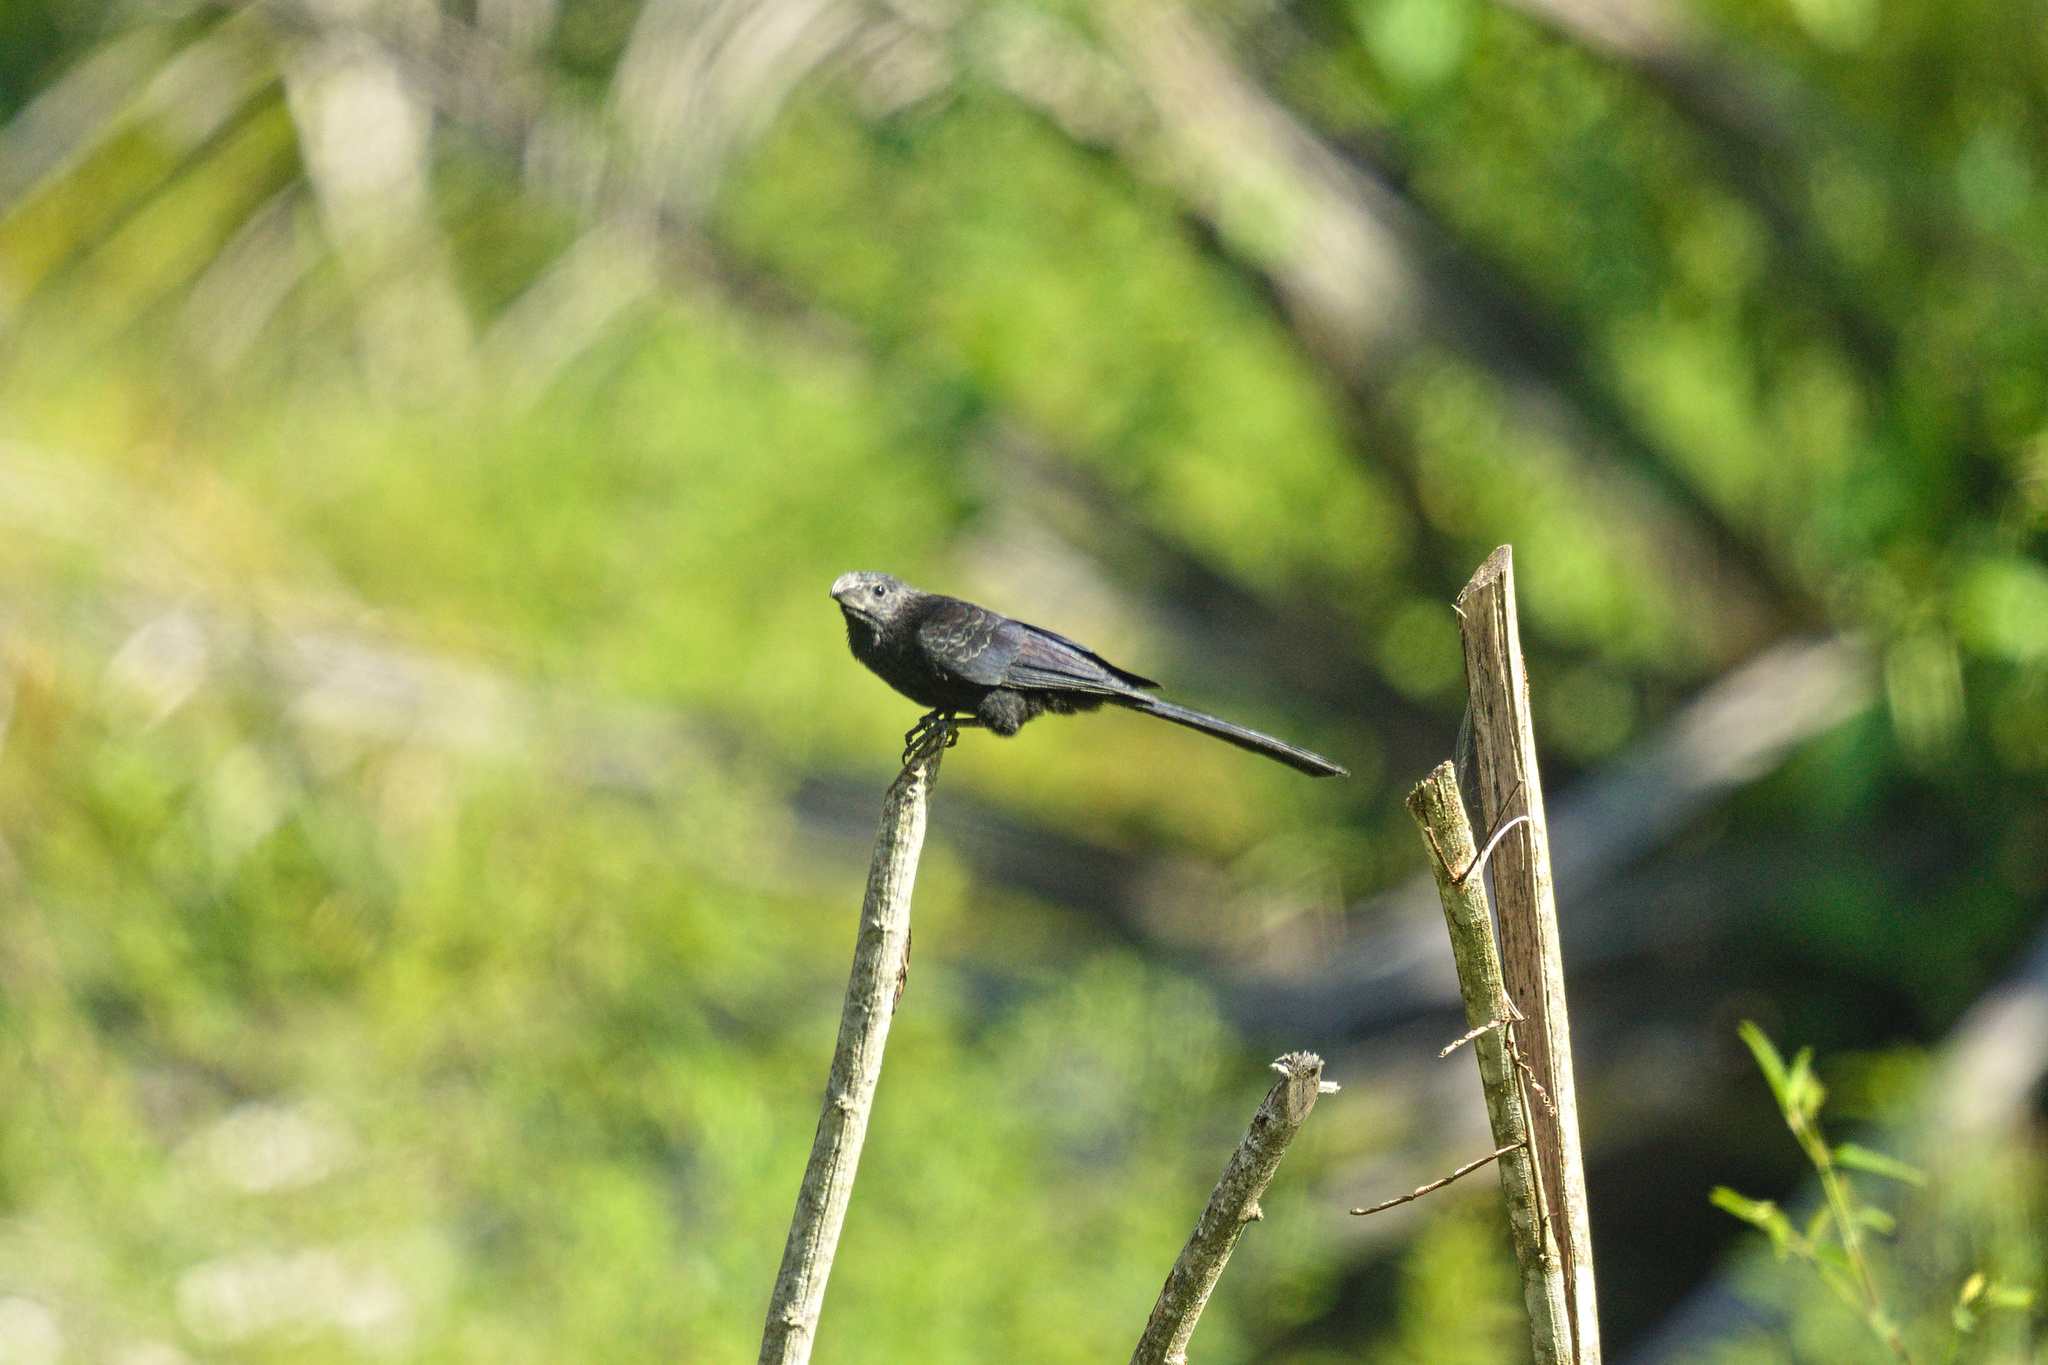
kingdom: Animalia
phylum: Chordata
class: Aves
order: Cuculiformes
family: Cuculidae
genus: Crotophaga
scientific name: Crotophaga sulcirostris
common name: Groove-billed ani
